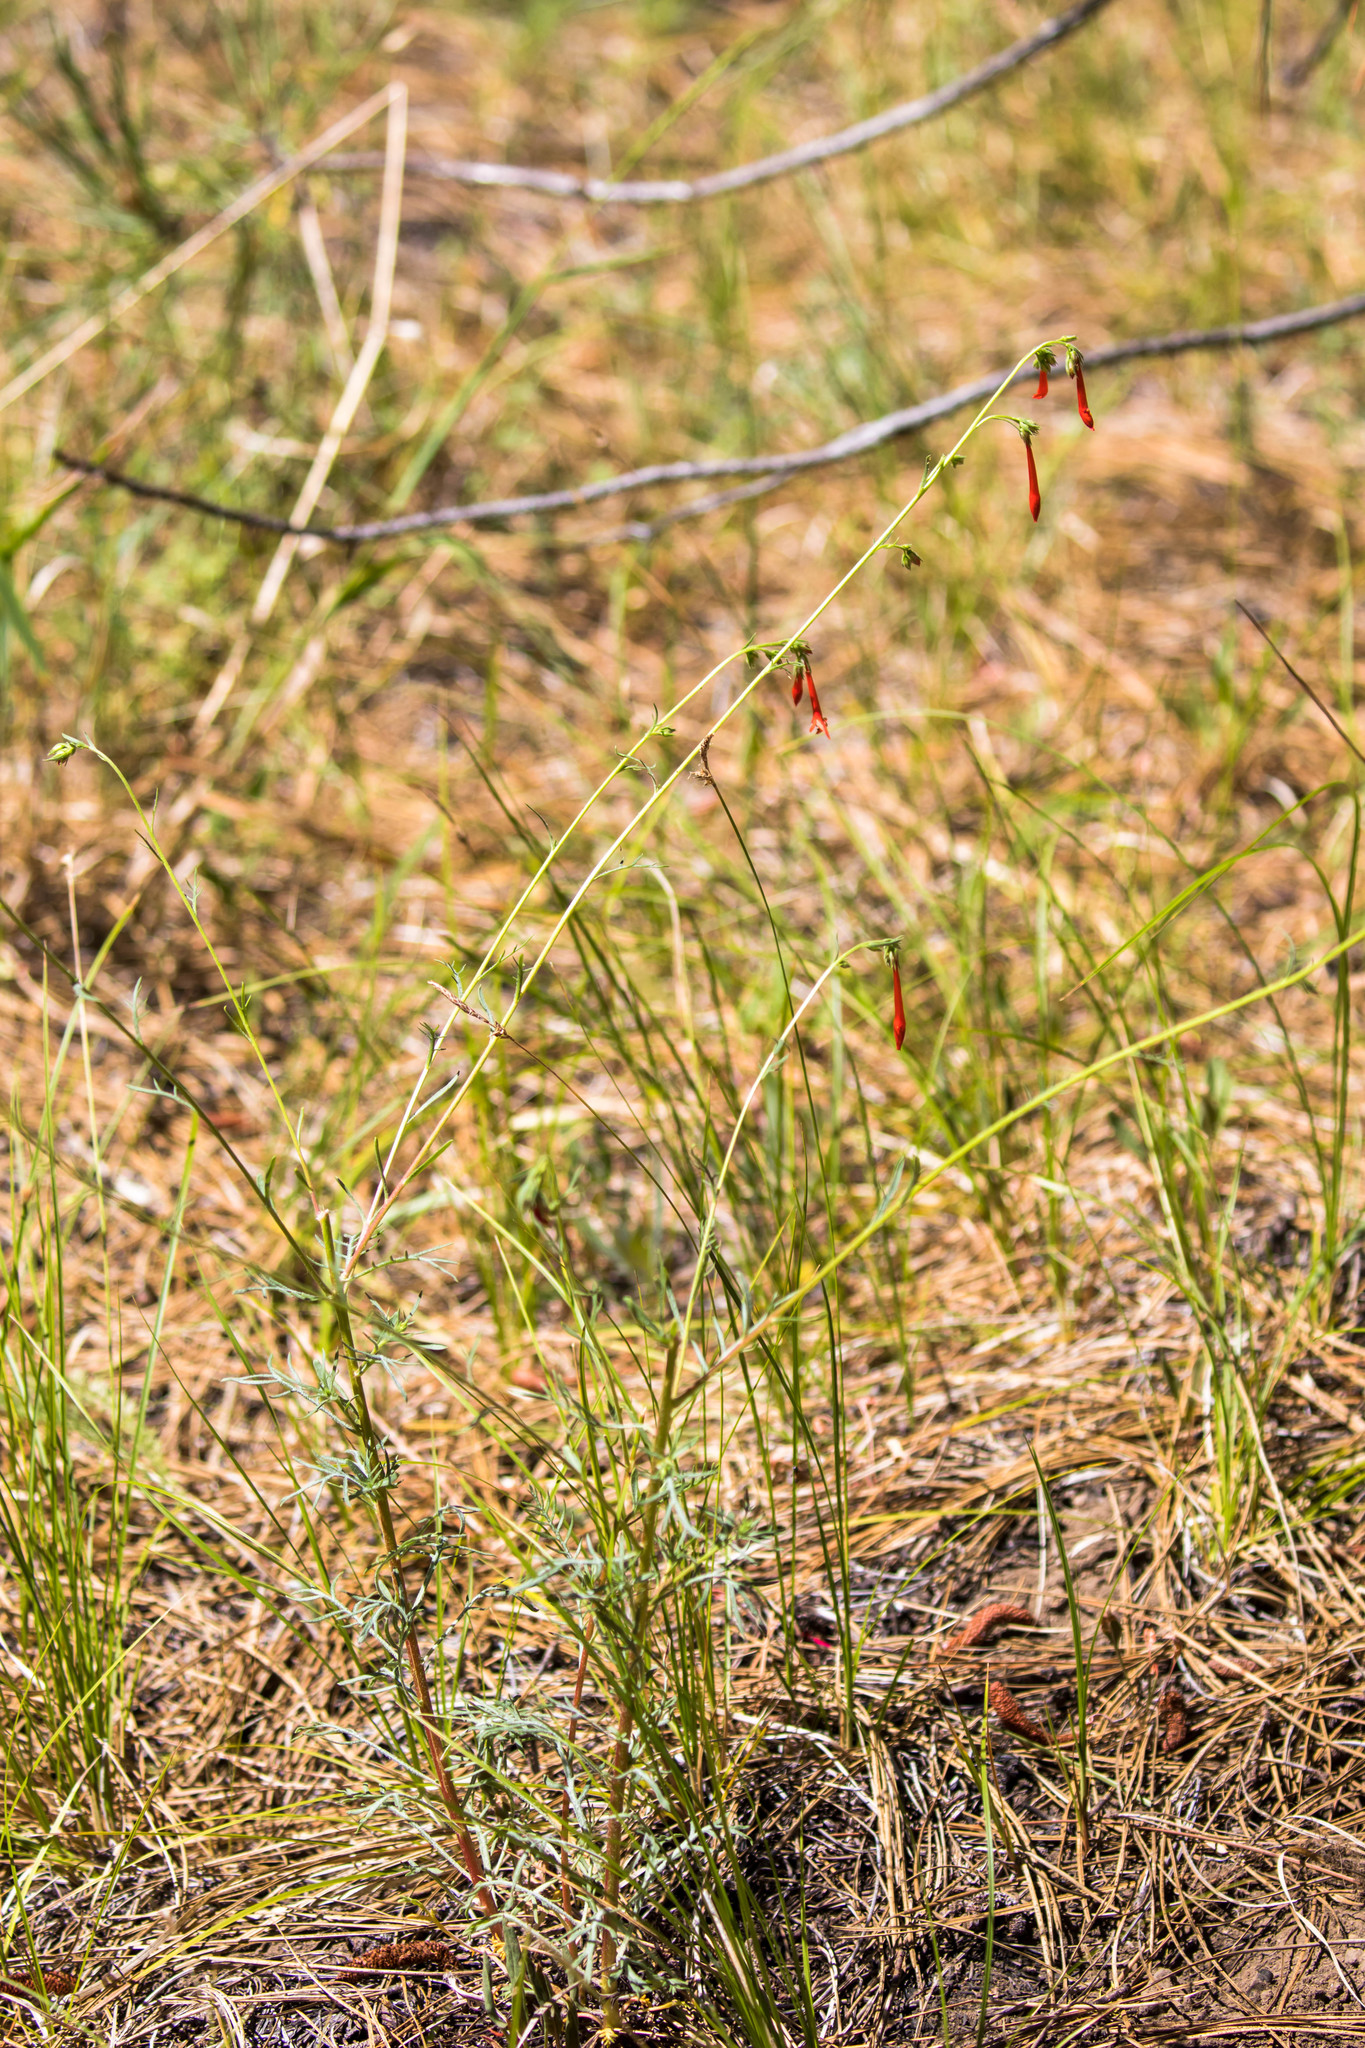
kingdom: Plantae
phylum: Tracheophyta
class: Magnoliopsida
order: Ericales
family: Polemoniaceae
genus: Ipomopsis
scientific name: Ipomopsis aggregata
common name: Scarlet gilia
